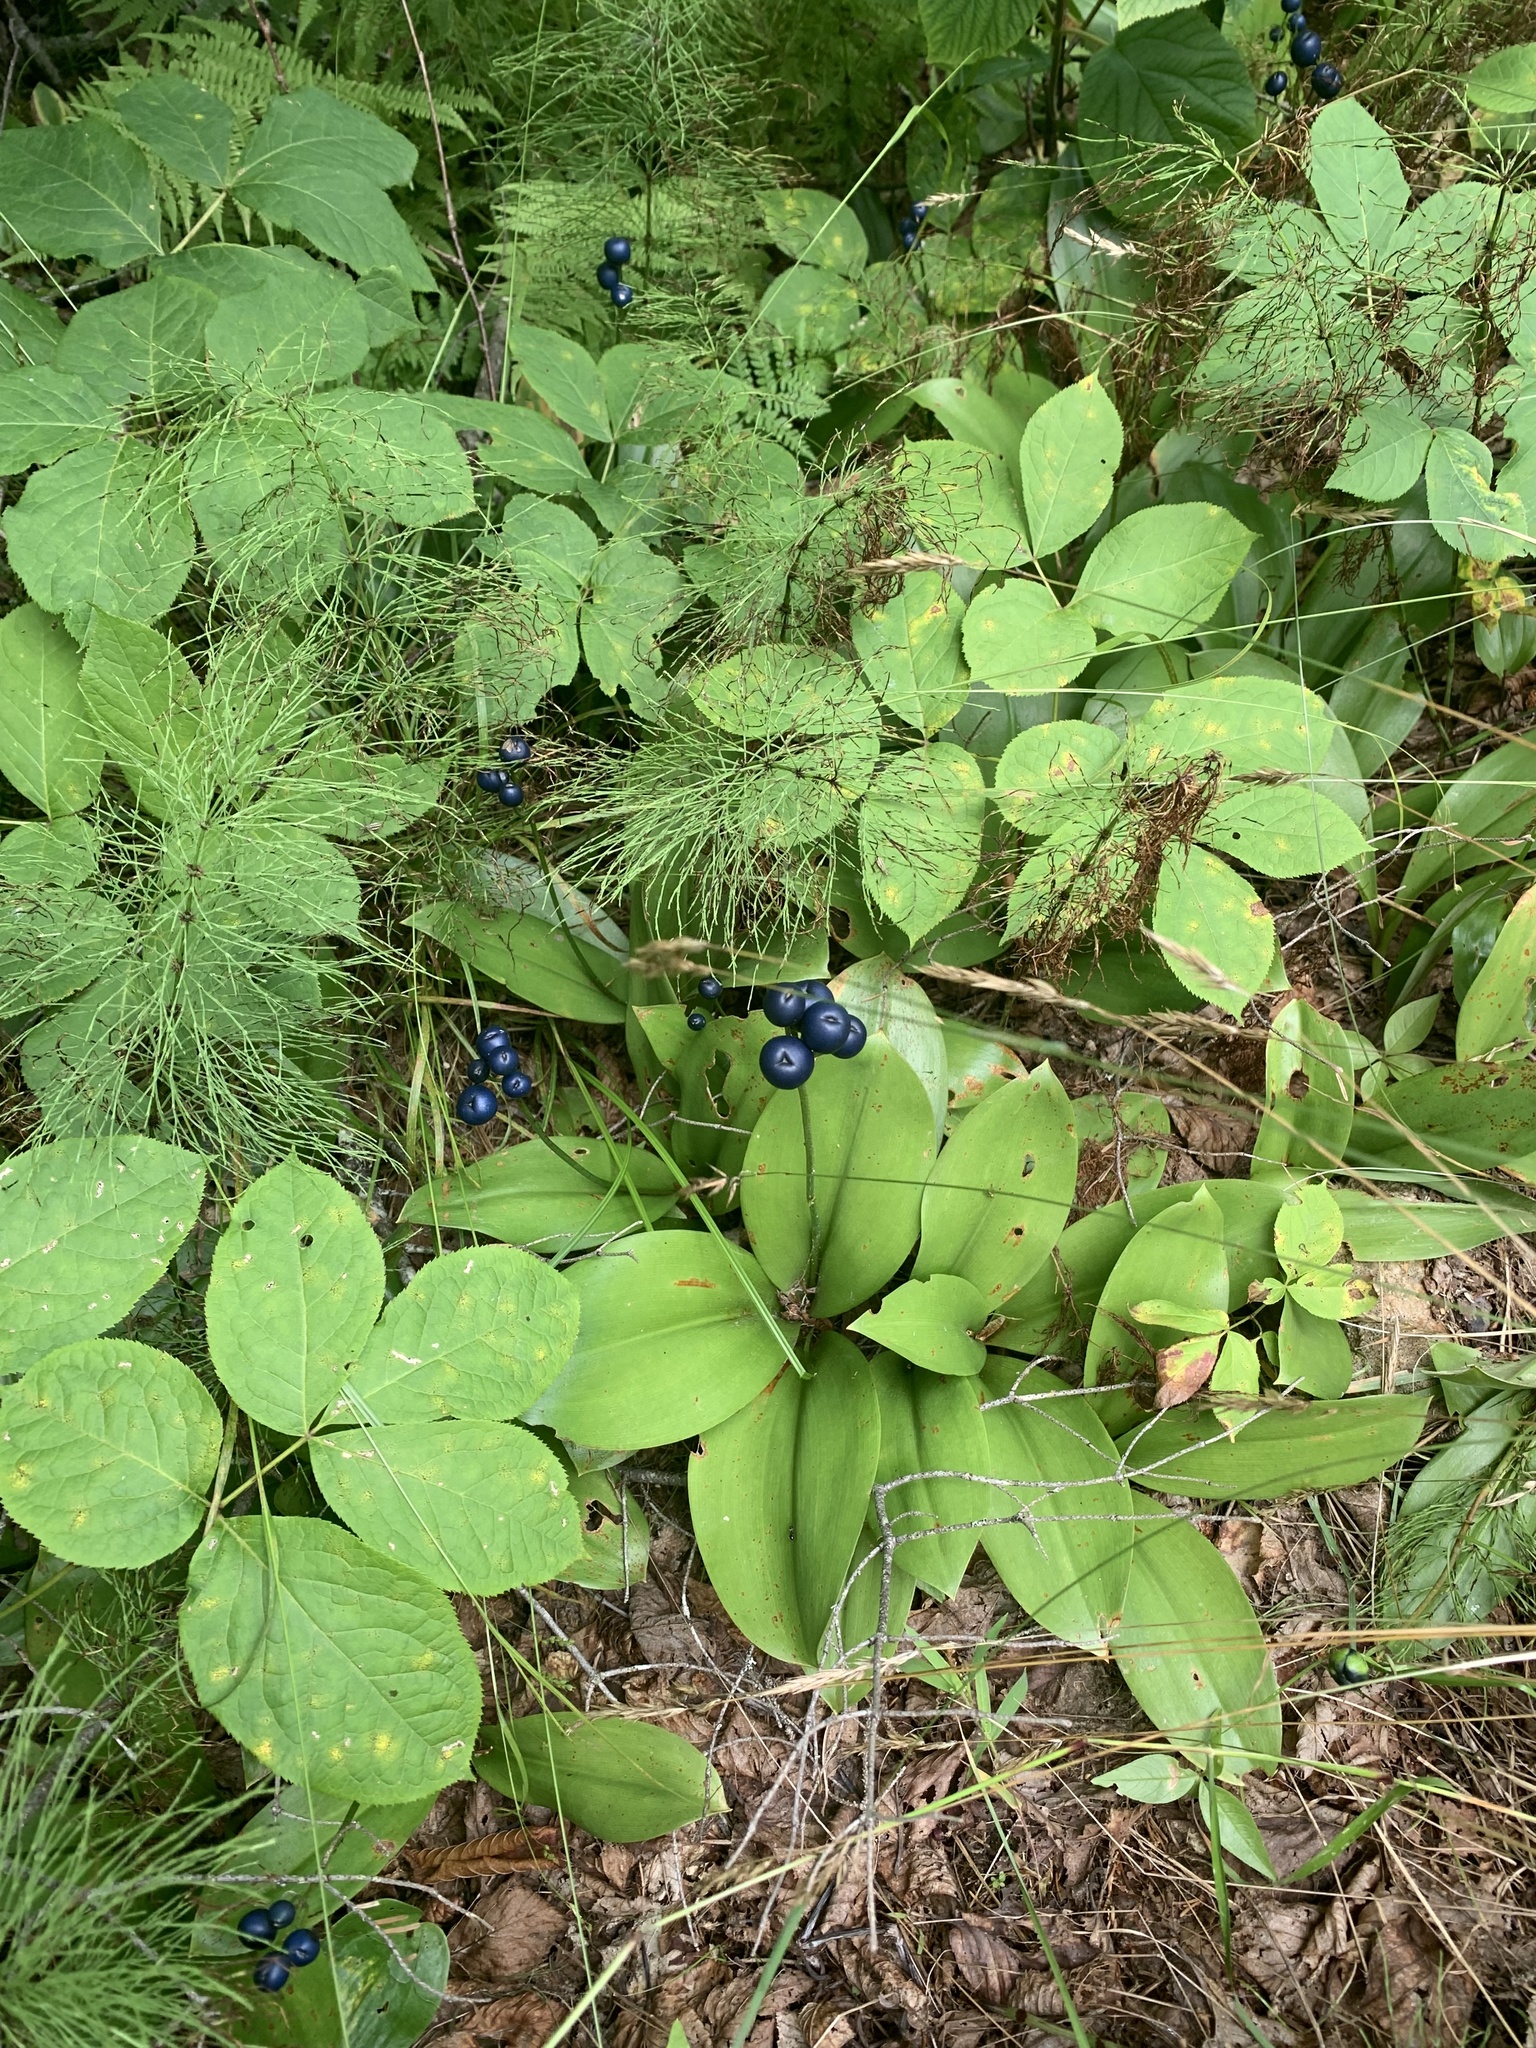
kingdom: Plantae
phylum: Tracheophyta
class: Liliopsida
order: Liliales
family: Liliaceae
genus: Clintonia
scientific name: Clintonia borealis
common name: Yellow clintonia
